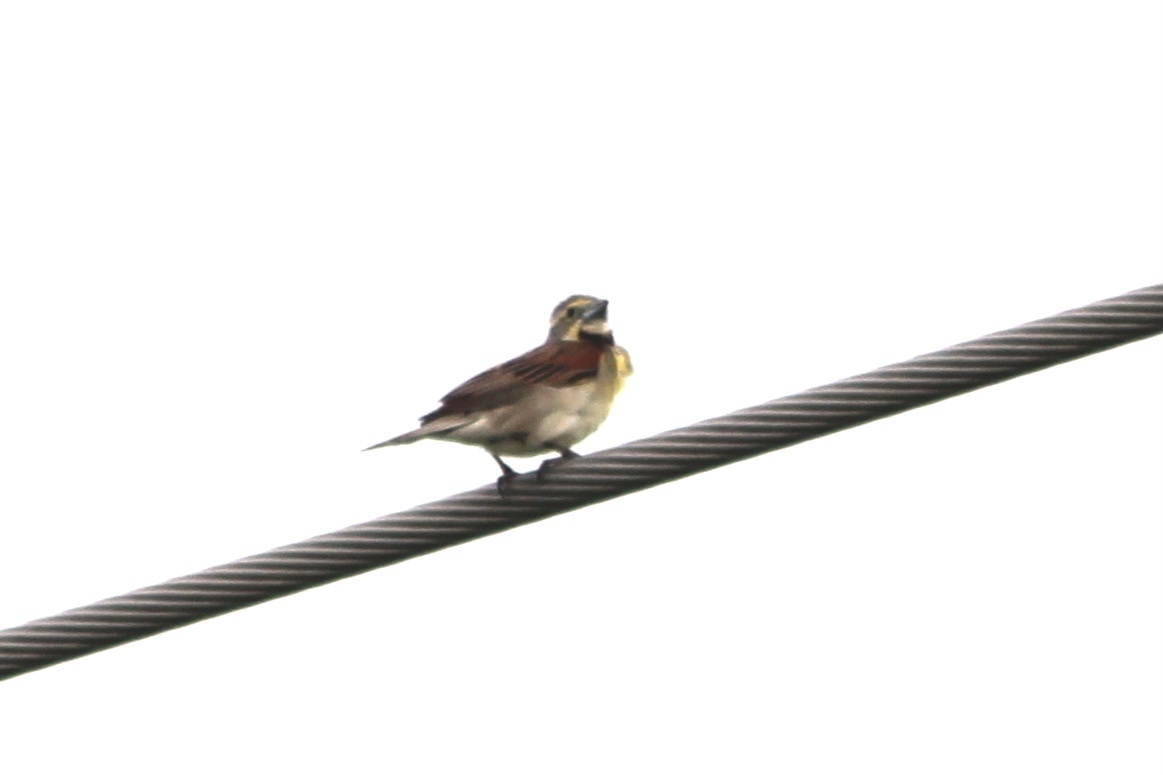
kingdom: Animalia
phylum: Chordata
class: Aves
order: Passeriformes
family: Cardinalidae
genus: Spiza
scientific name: Spiza americana
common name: Dickcissel
